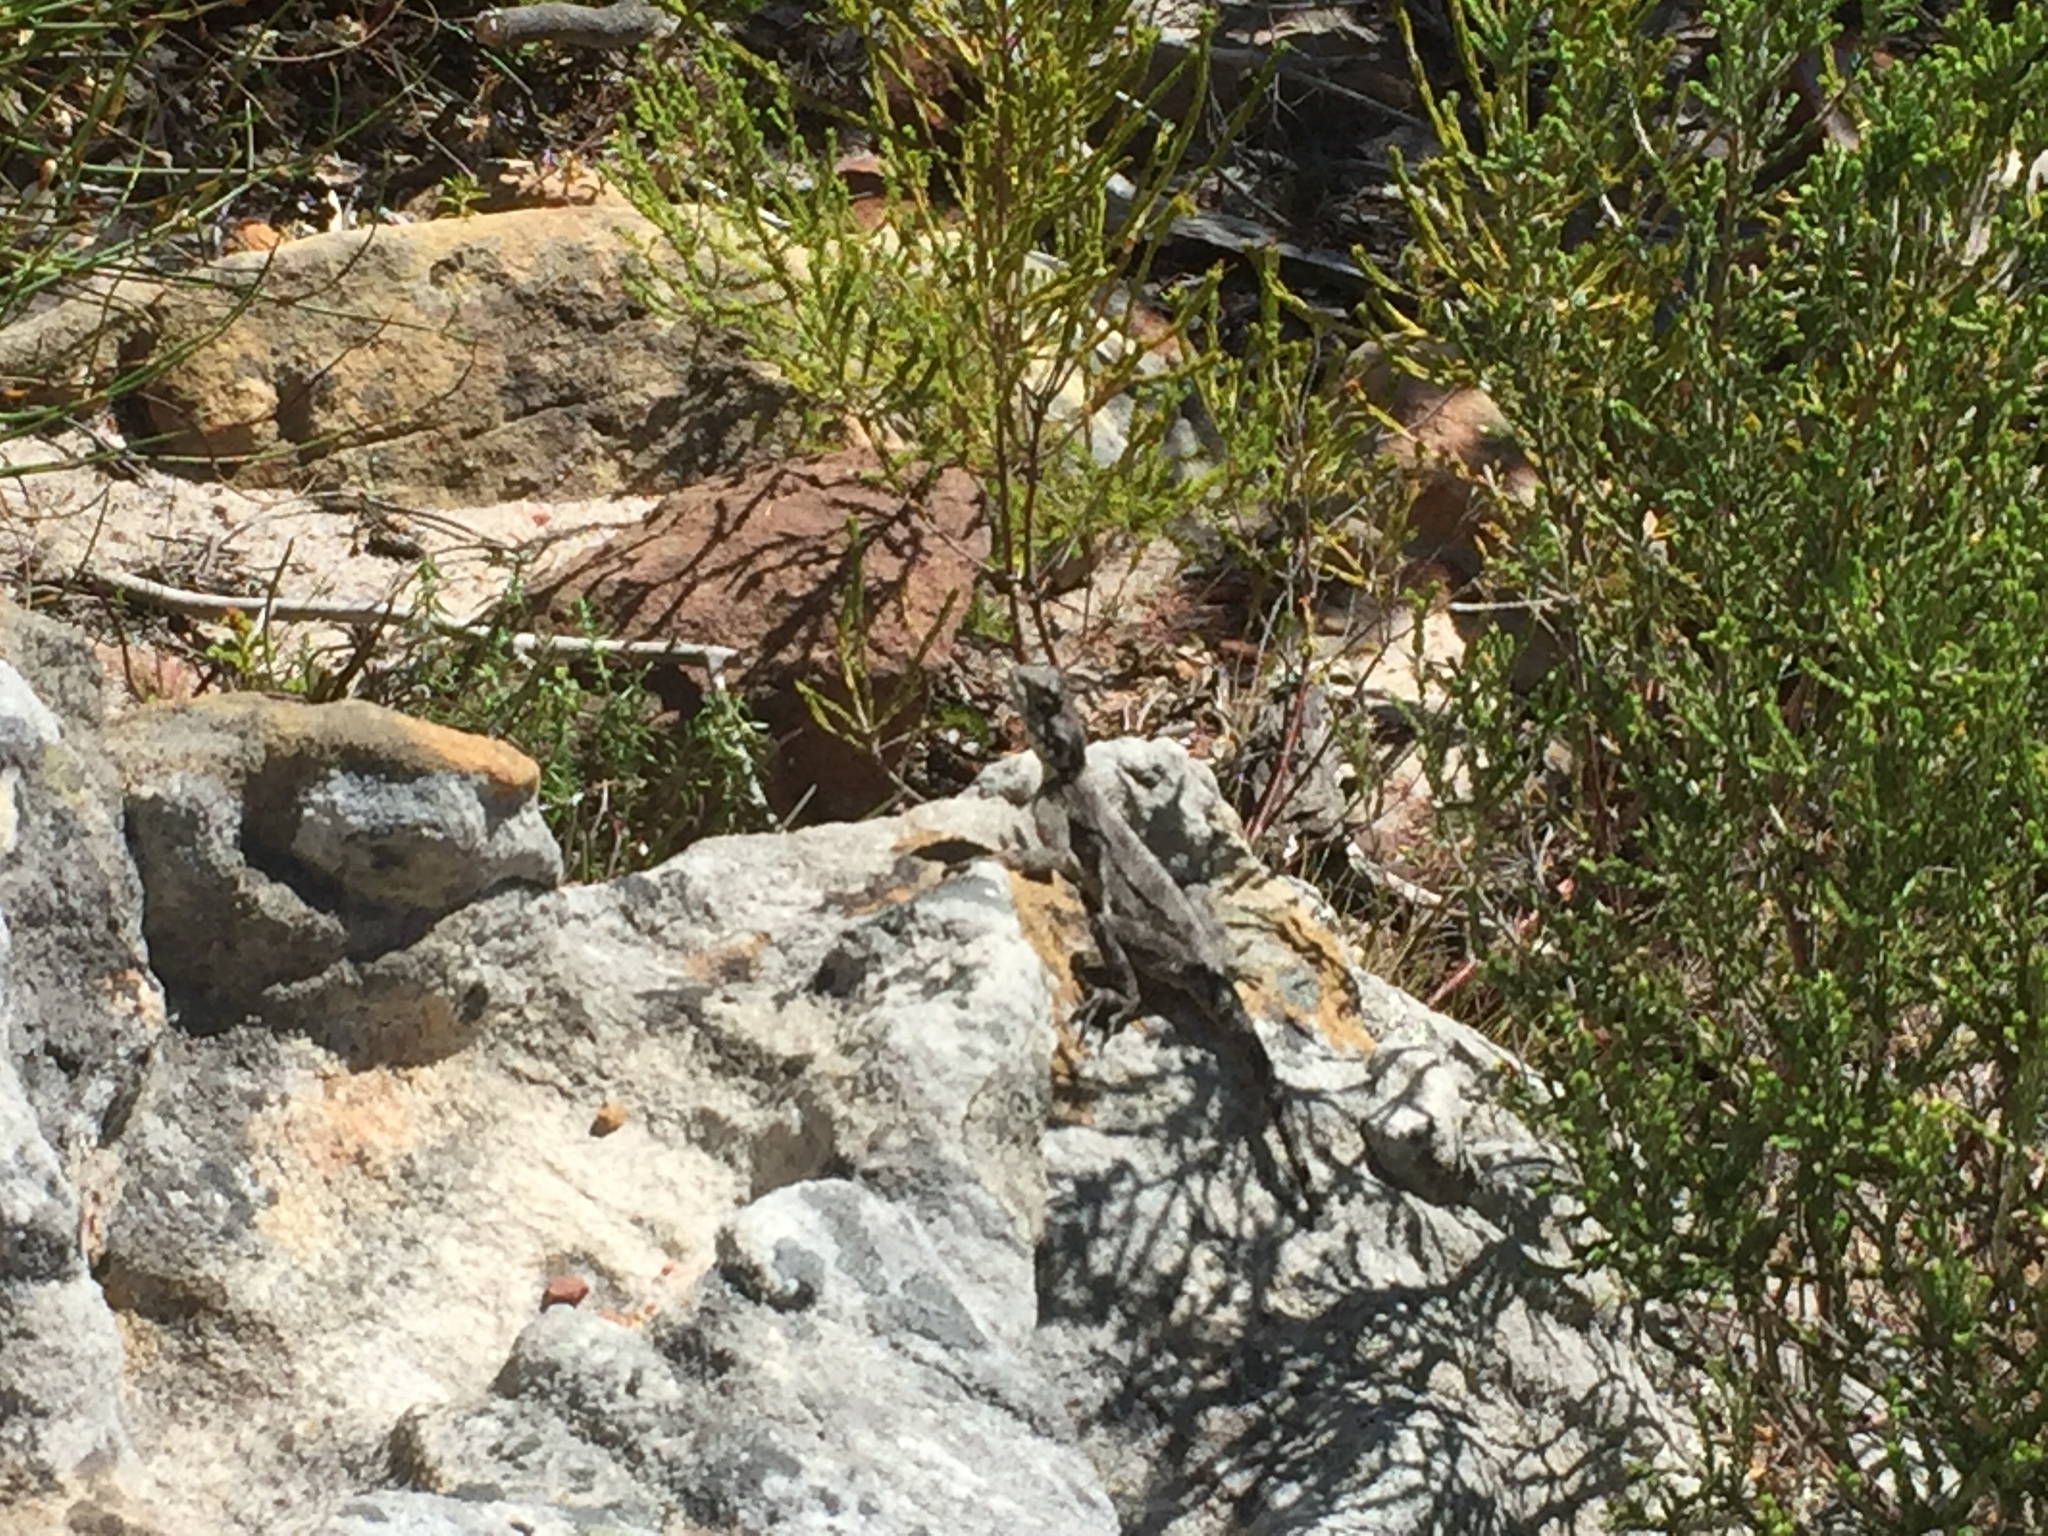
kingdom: Animalia
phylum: Chordata
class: Squamata
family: Agamidae
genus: Agama
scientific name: Agama atra
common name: Southern african rock agama
